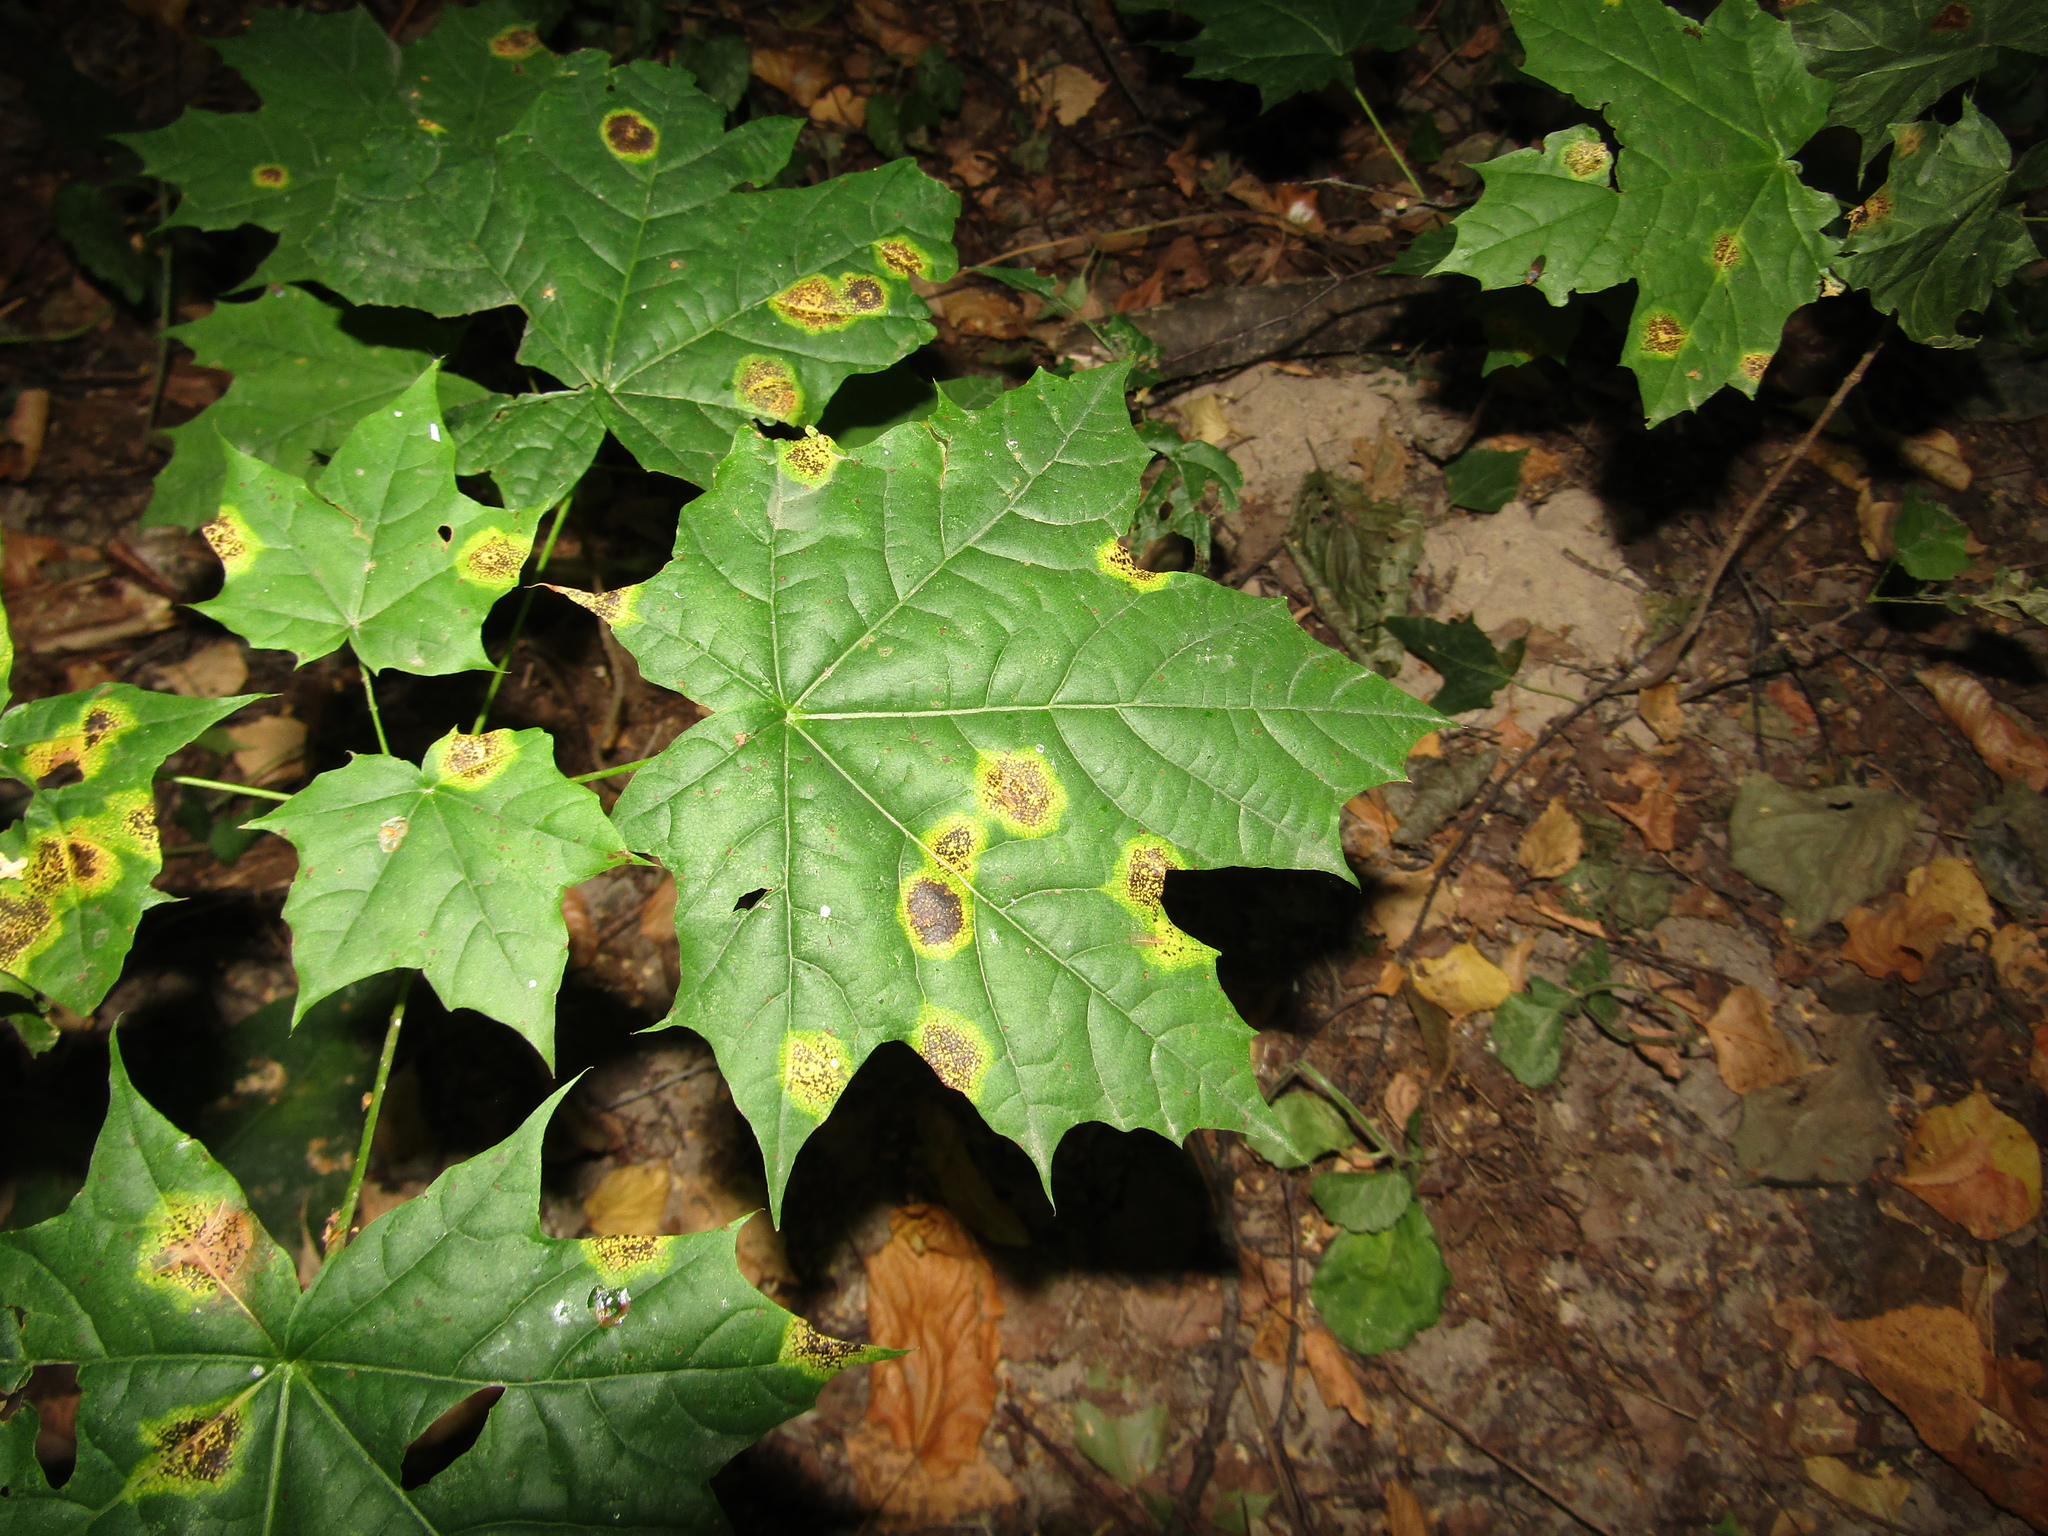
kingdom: Fungi
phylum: Ascomycota
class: Leotiomycetes
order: Rhytismatales
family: Rhytismataceae
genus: Rhytisma
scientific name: Rhytisma acerinum
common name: European tar spot
